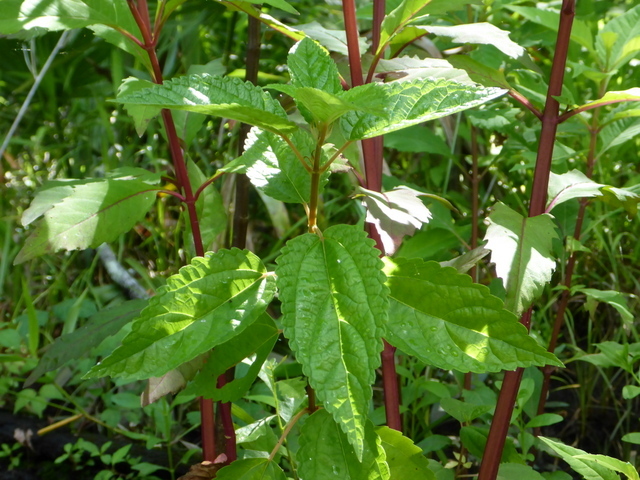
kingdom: Plantae
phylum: Tracheophyta
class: Magnoliopsida
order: Rosales
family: Urticaceae
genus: Boehmeria
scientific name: Boehmeria cylindrica
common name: Bog-hemp
